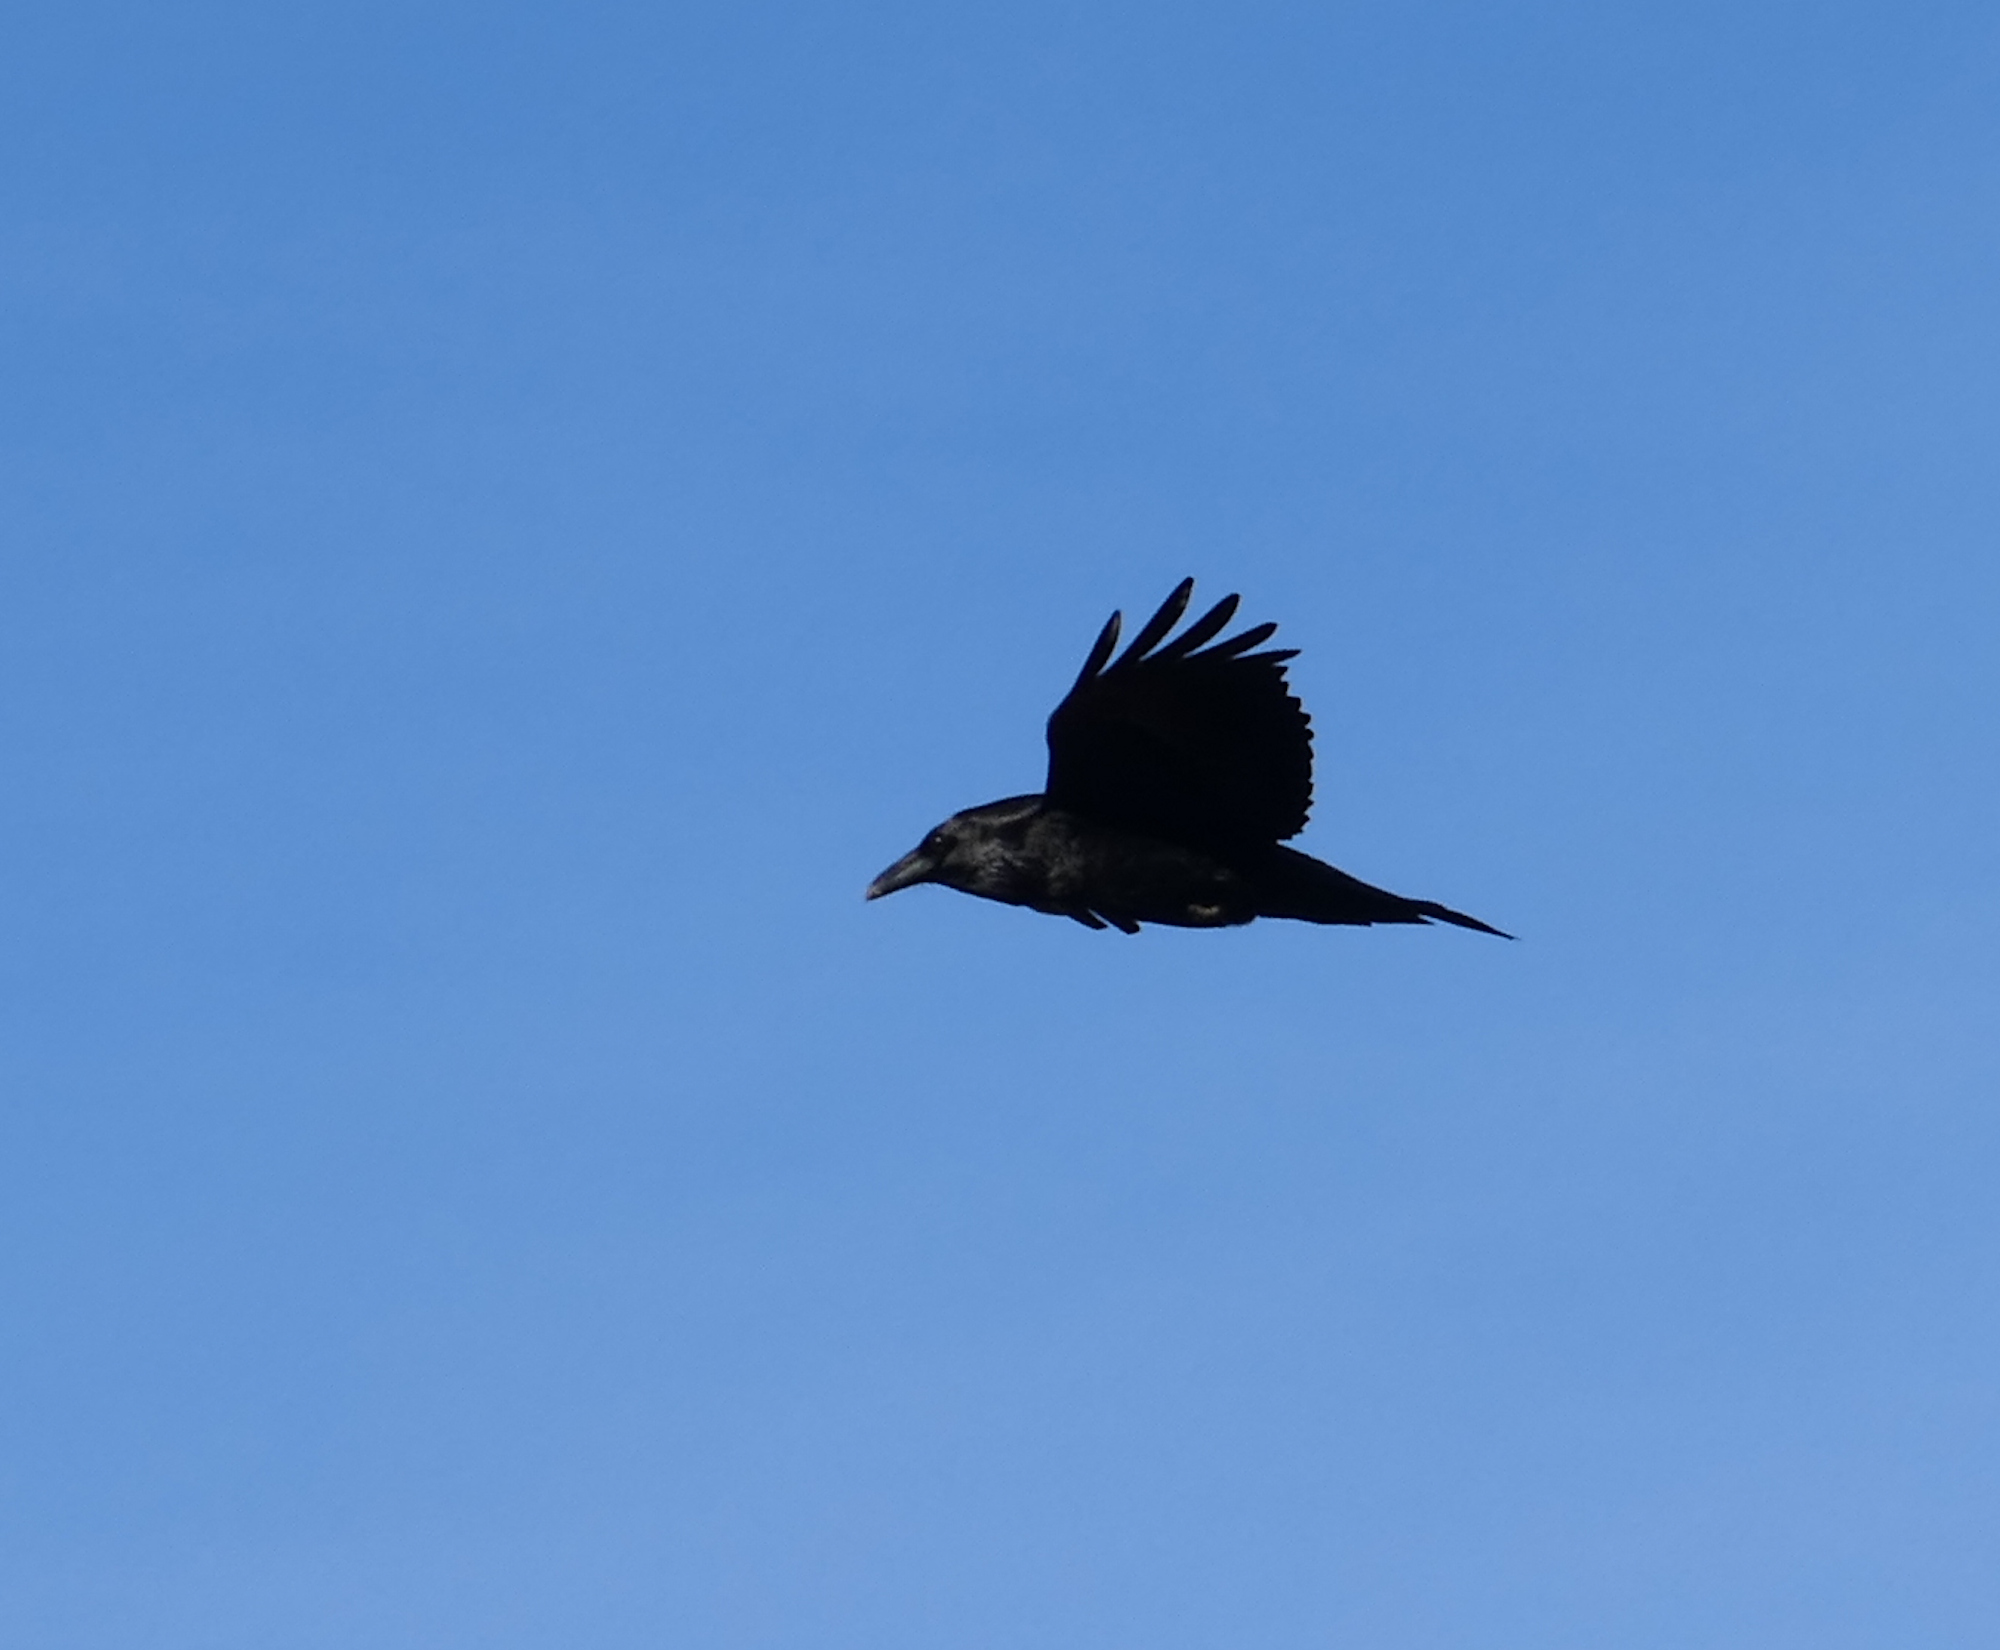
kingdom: Animalia
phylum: Chordata
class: Aves
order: Passeriformes
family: Corvidae
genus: Corvus
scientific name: Corvus corax
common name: Common raven
